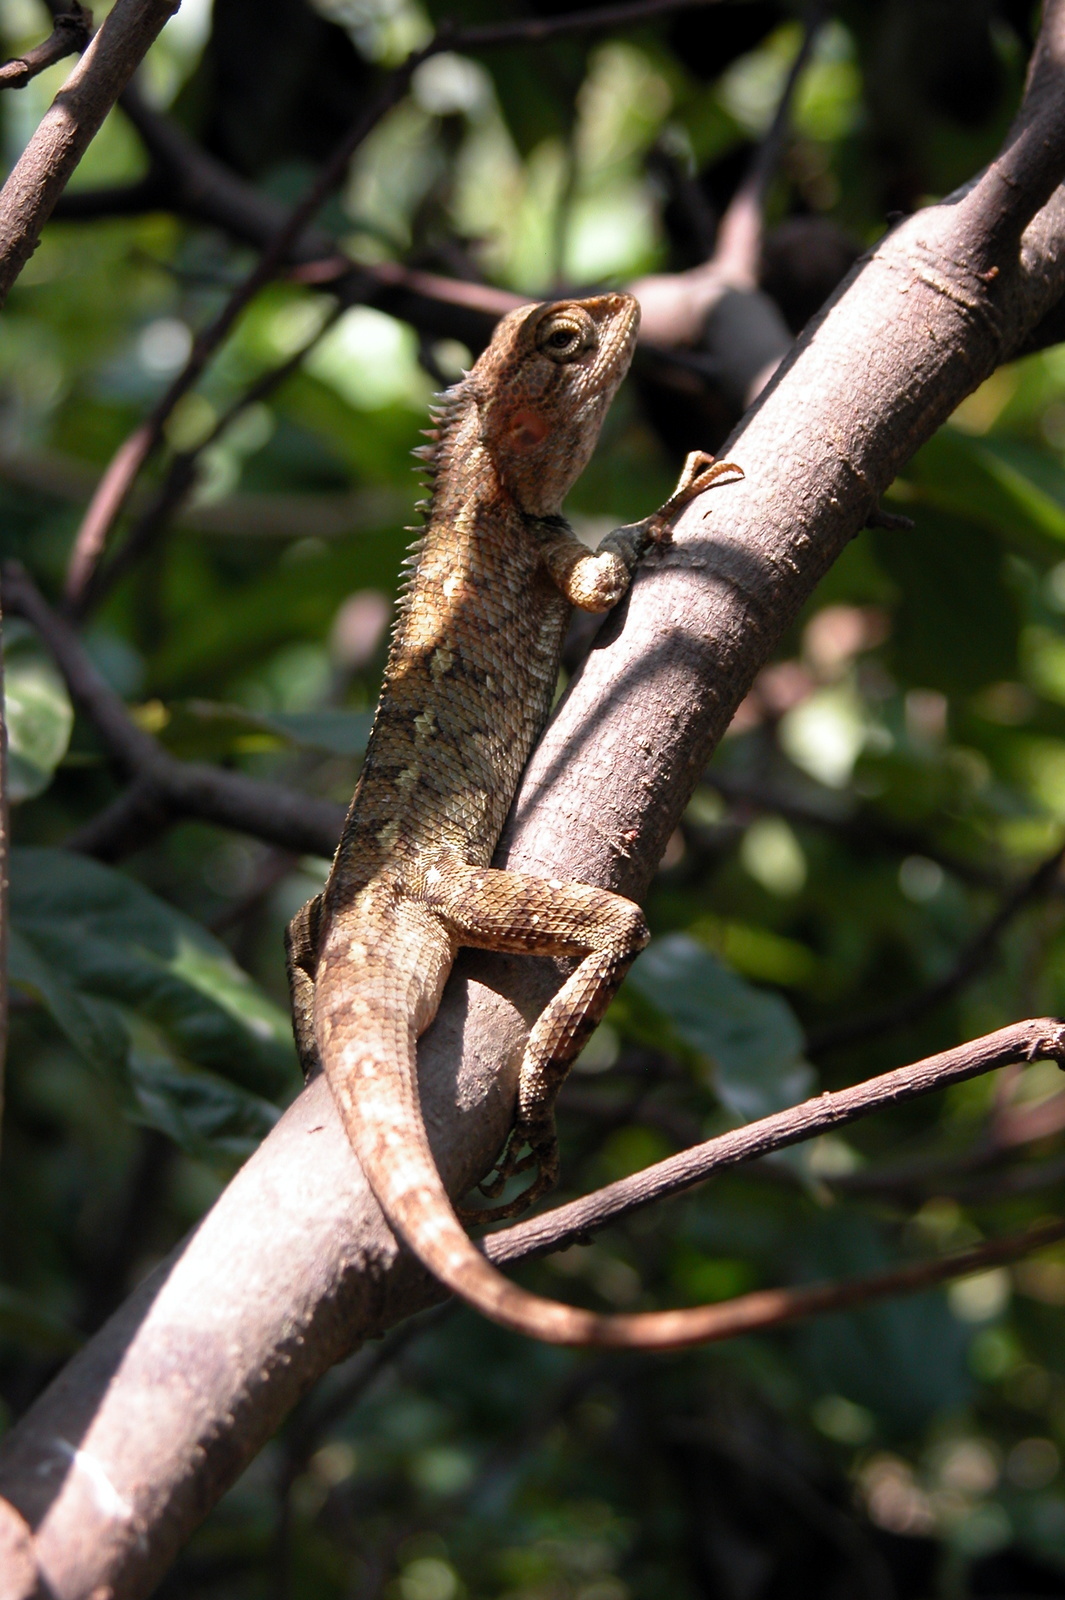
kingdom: Animalia
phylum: Chordata
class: Squamata
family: Agamidae
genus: Calotes
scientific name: Calotes versicolor
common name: Oriental garden lizard
